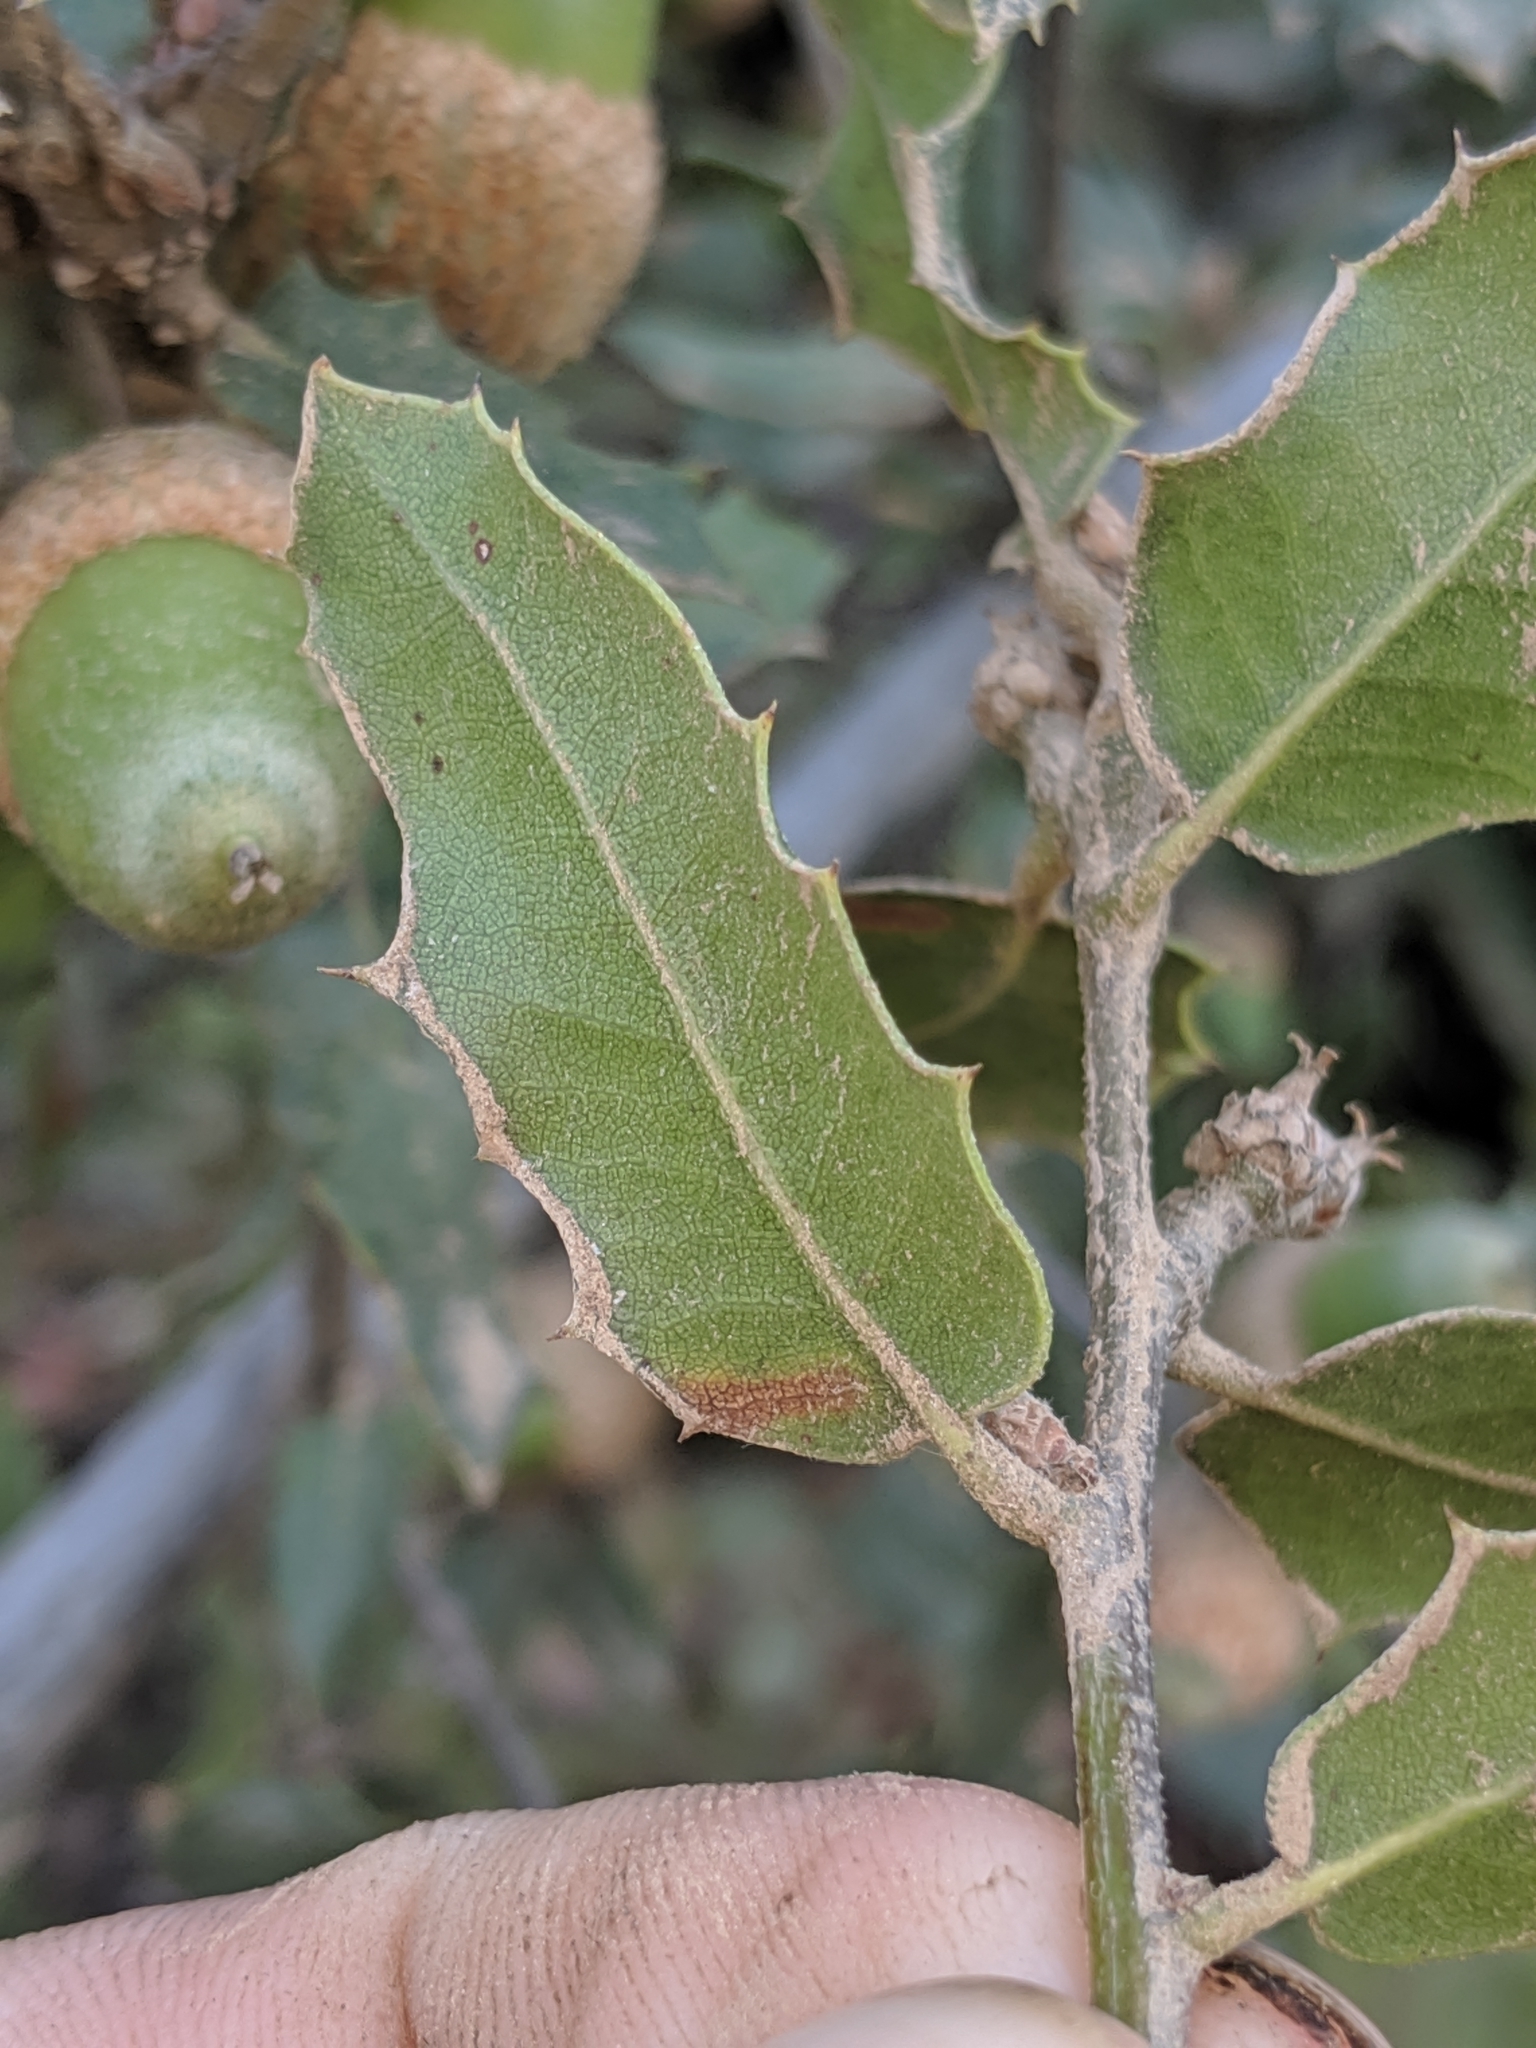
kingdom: Plantae
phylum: Tracheophyta
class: Magnoliopsida
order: Fagales
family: Fagaceae
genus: Quercus
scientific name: Quercus wislizeni
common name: Interior live oak
